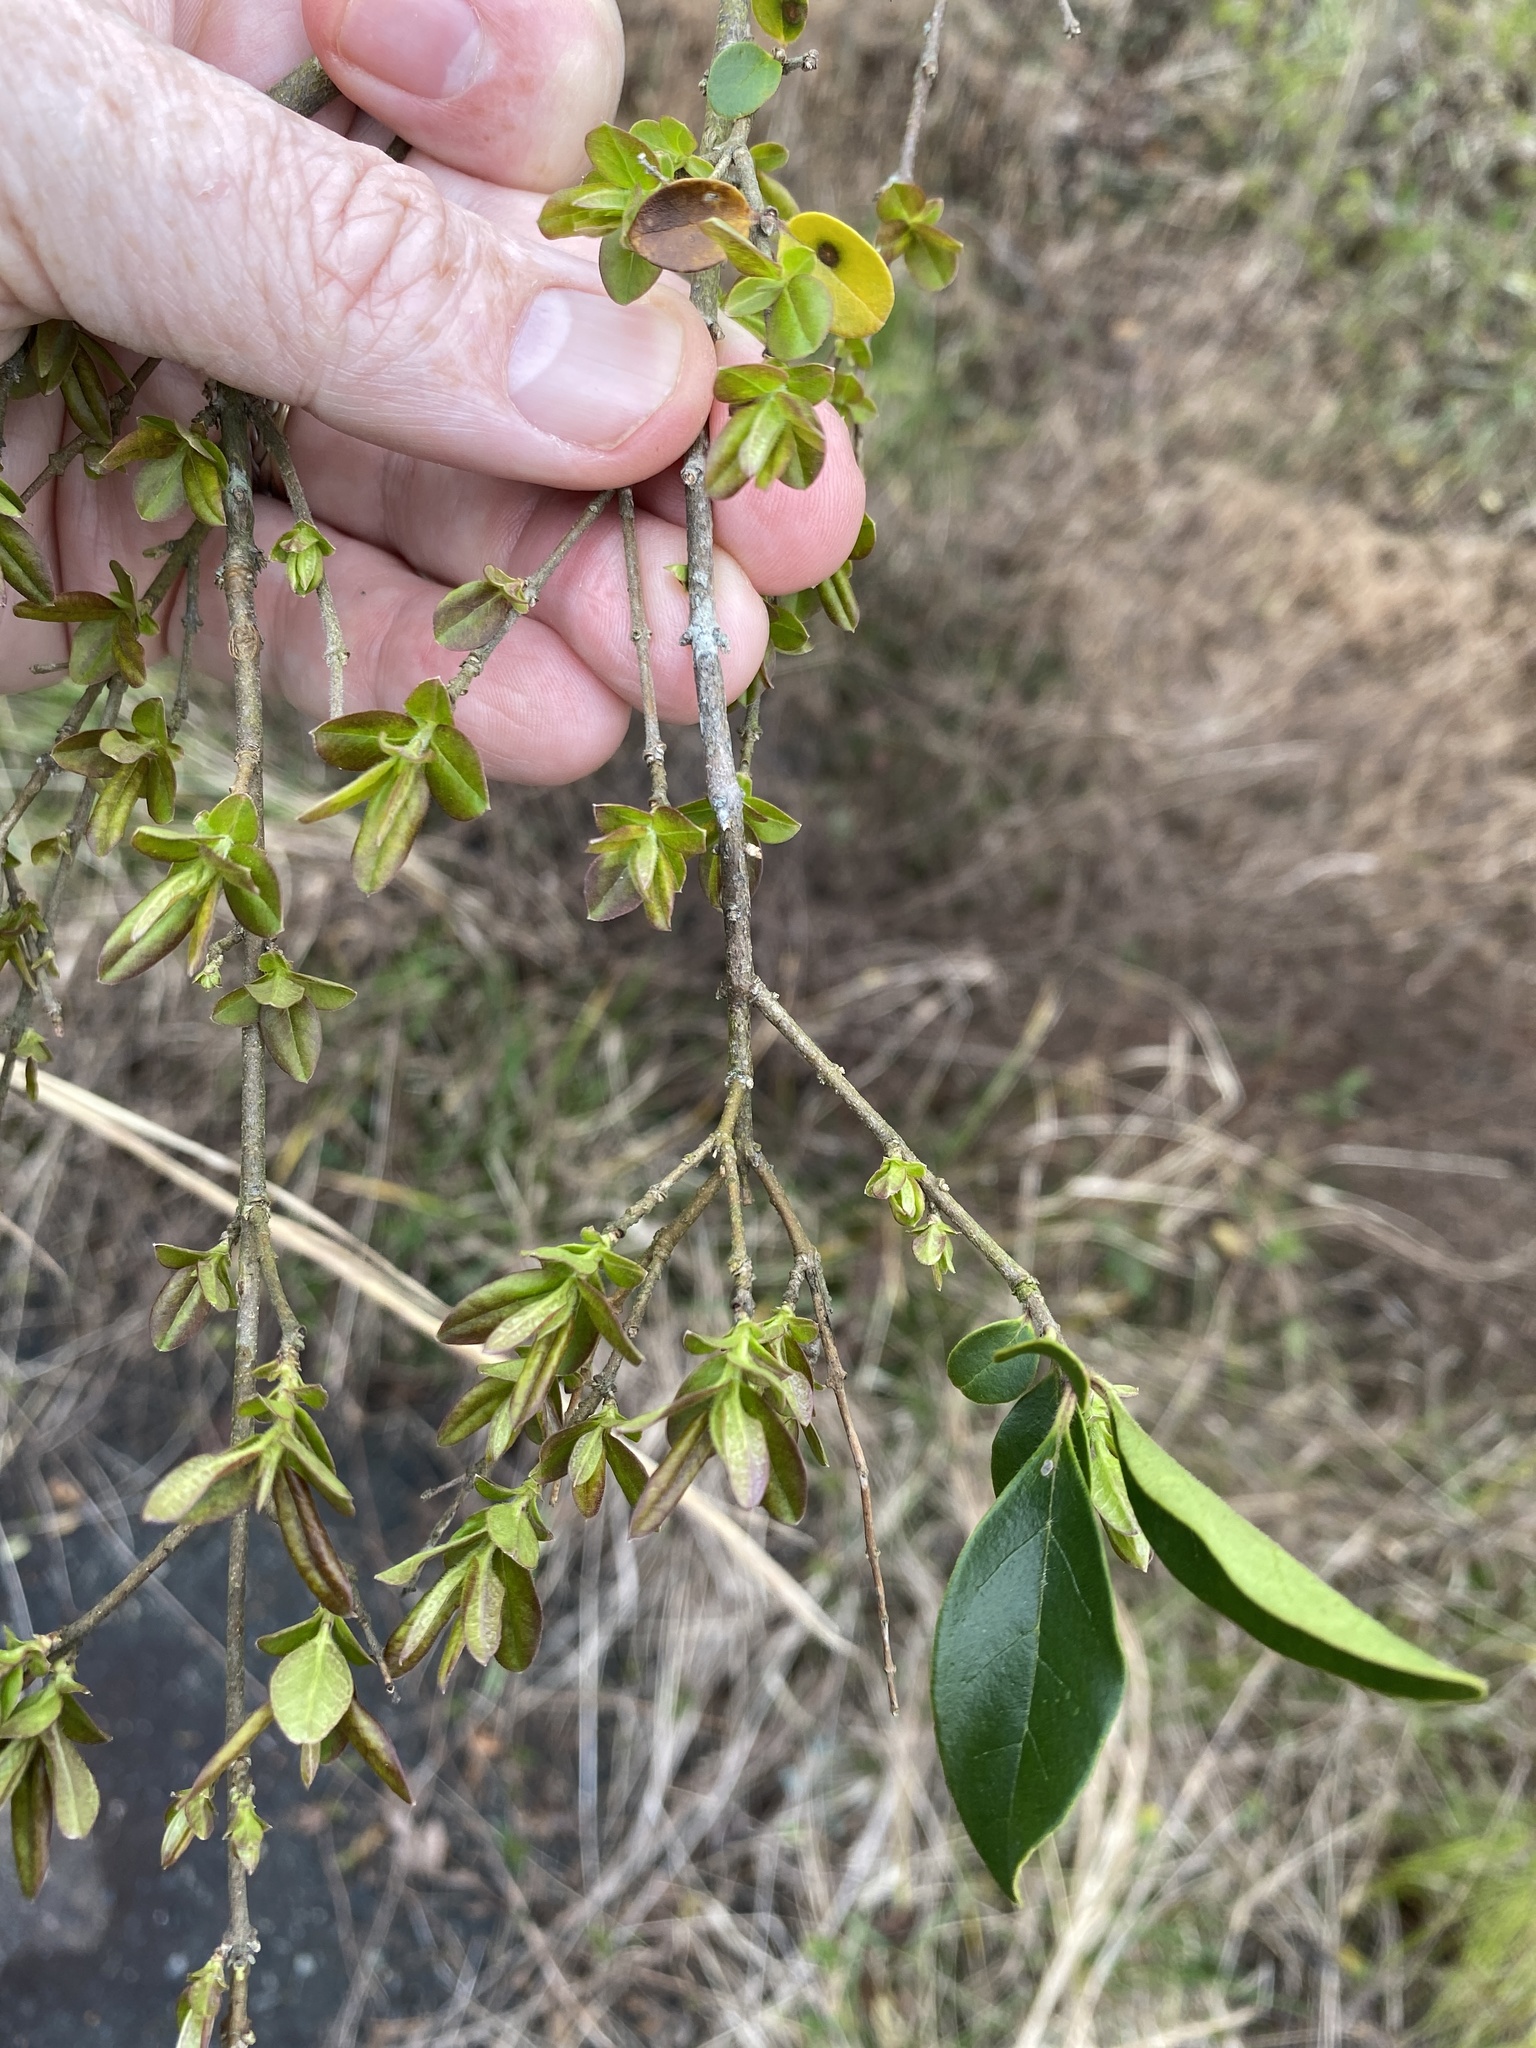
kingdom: Plantae
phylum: Tracheophyta
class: Magnoliopsida
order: Lamiales
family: Oleaceae
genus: Ligustrum
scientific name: Ligustrum sinense
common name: Chinese privet
